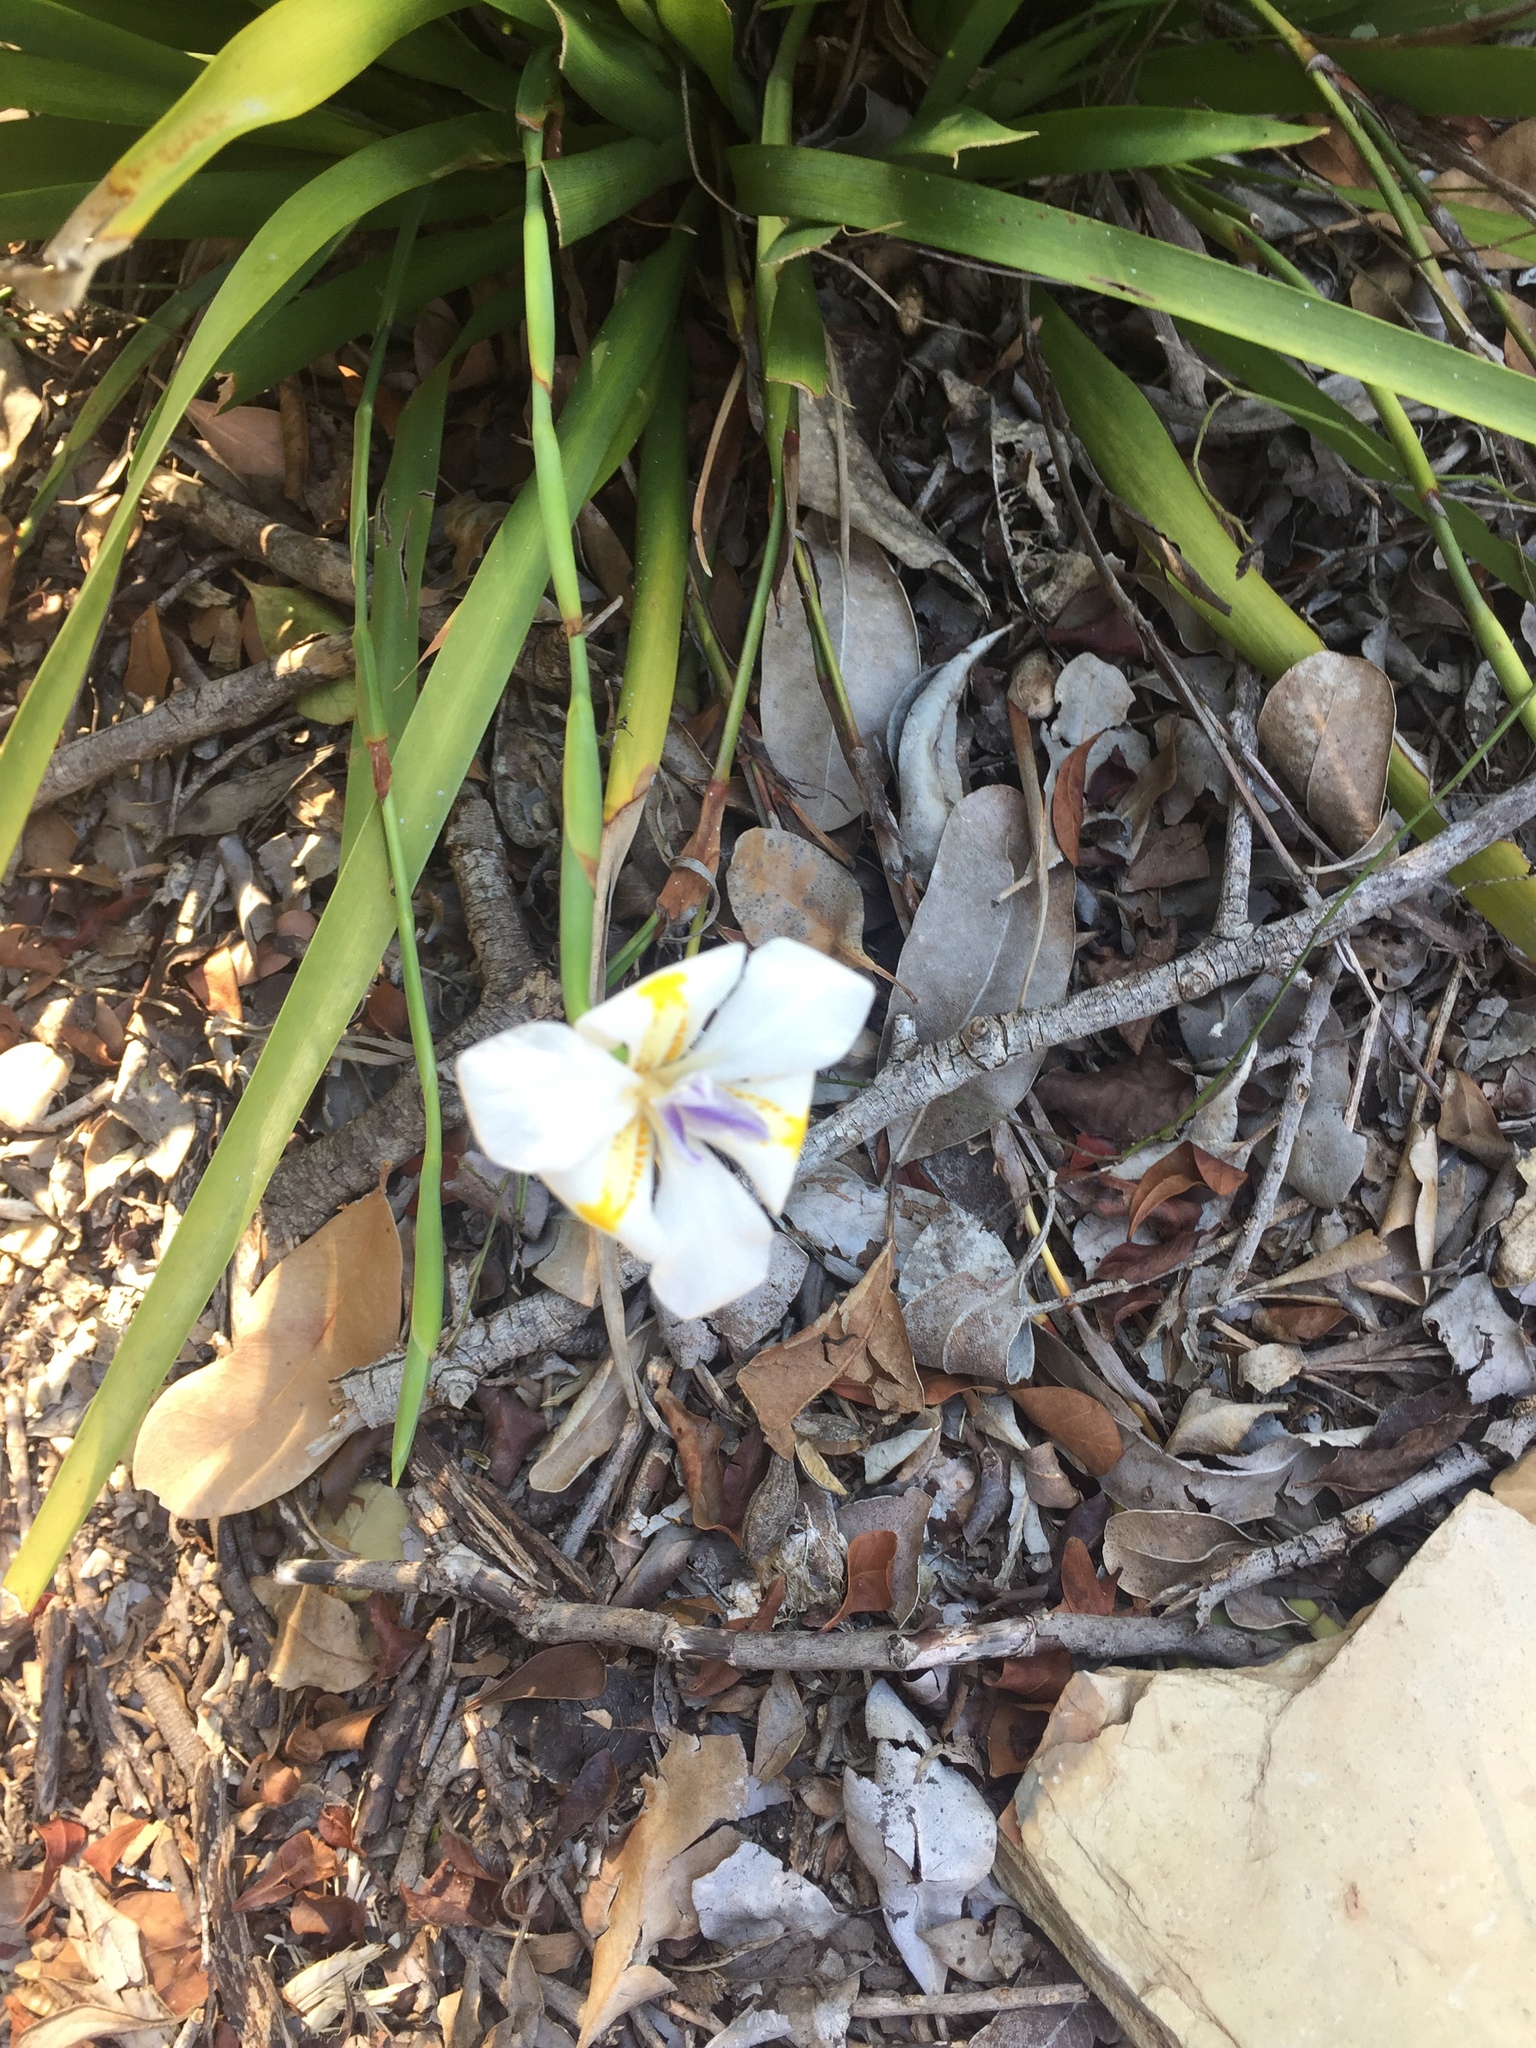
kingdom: Plantae
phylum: Tracheophyta
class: Liliopsida
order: Asparagales
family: Iridaceae
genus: Dietes
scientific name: Dietes iridioides
